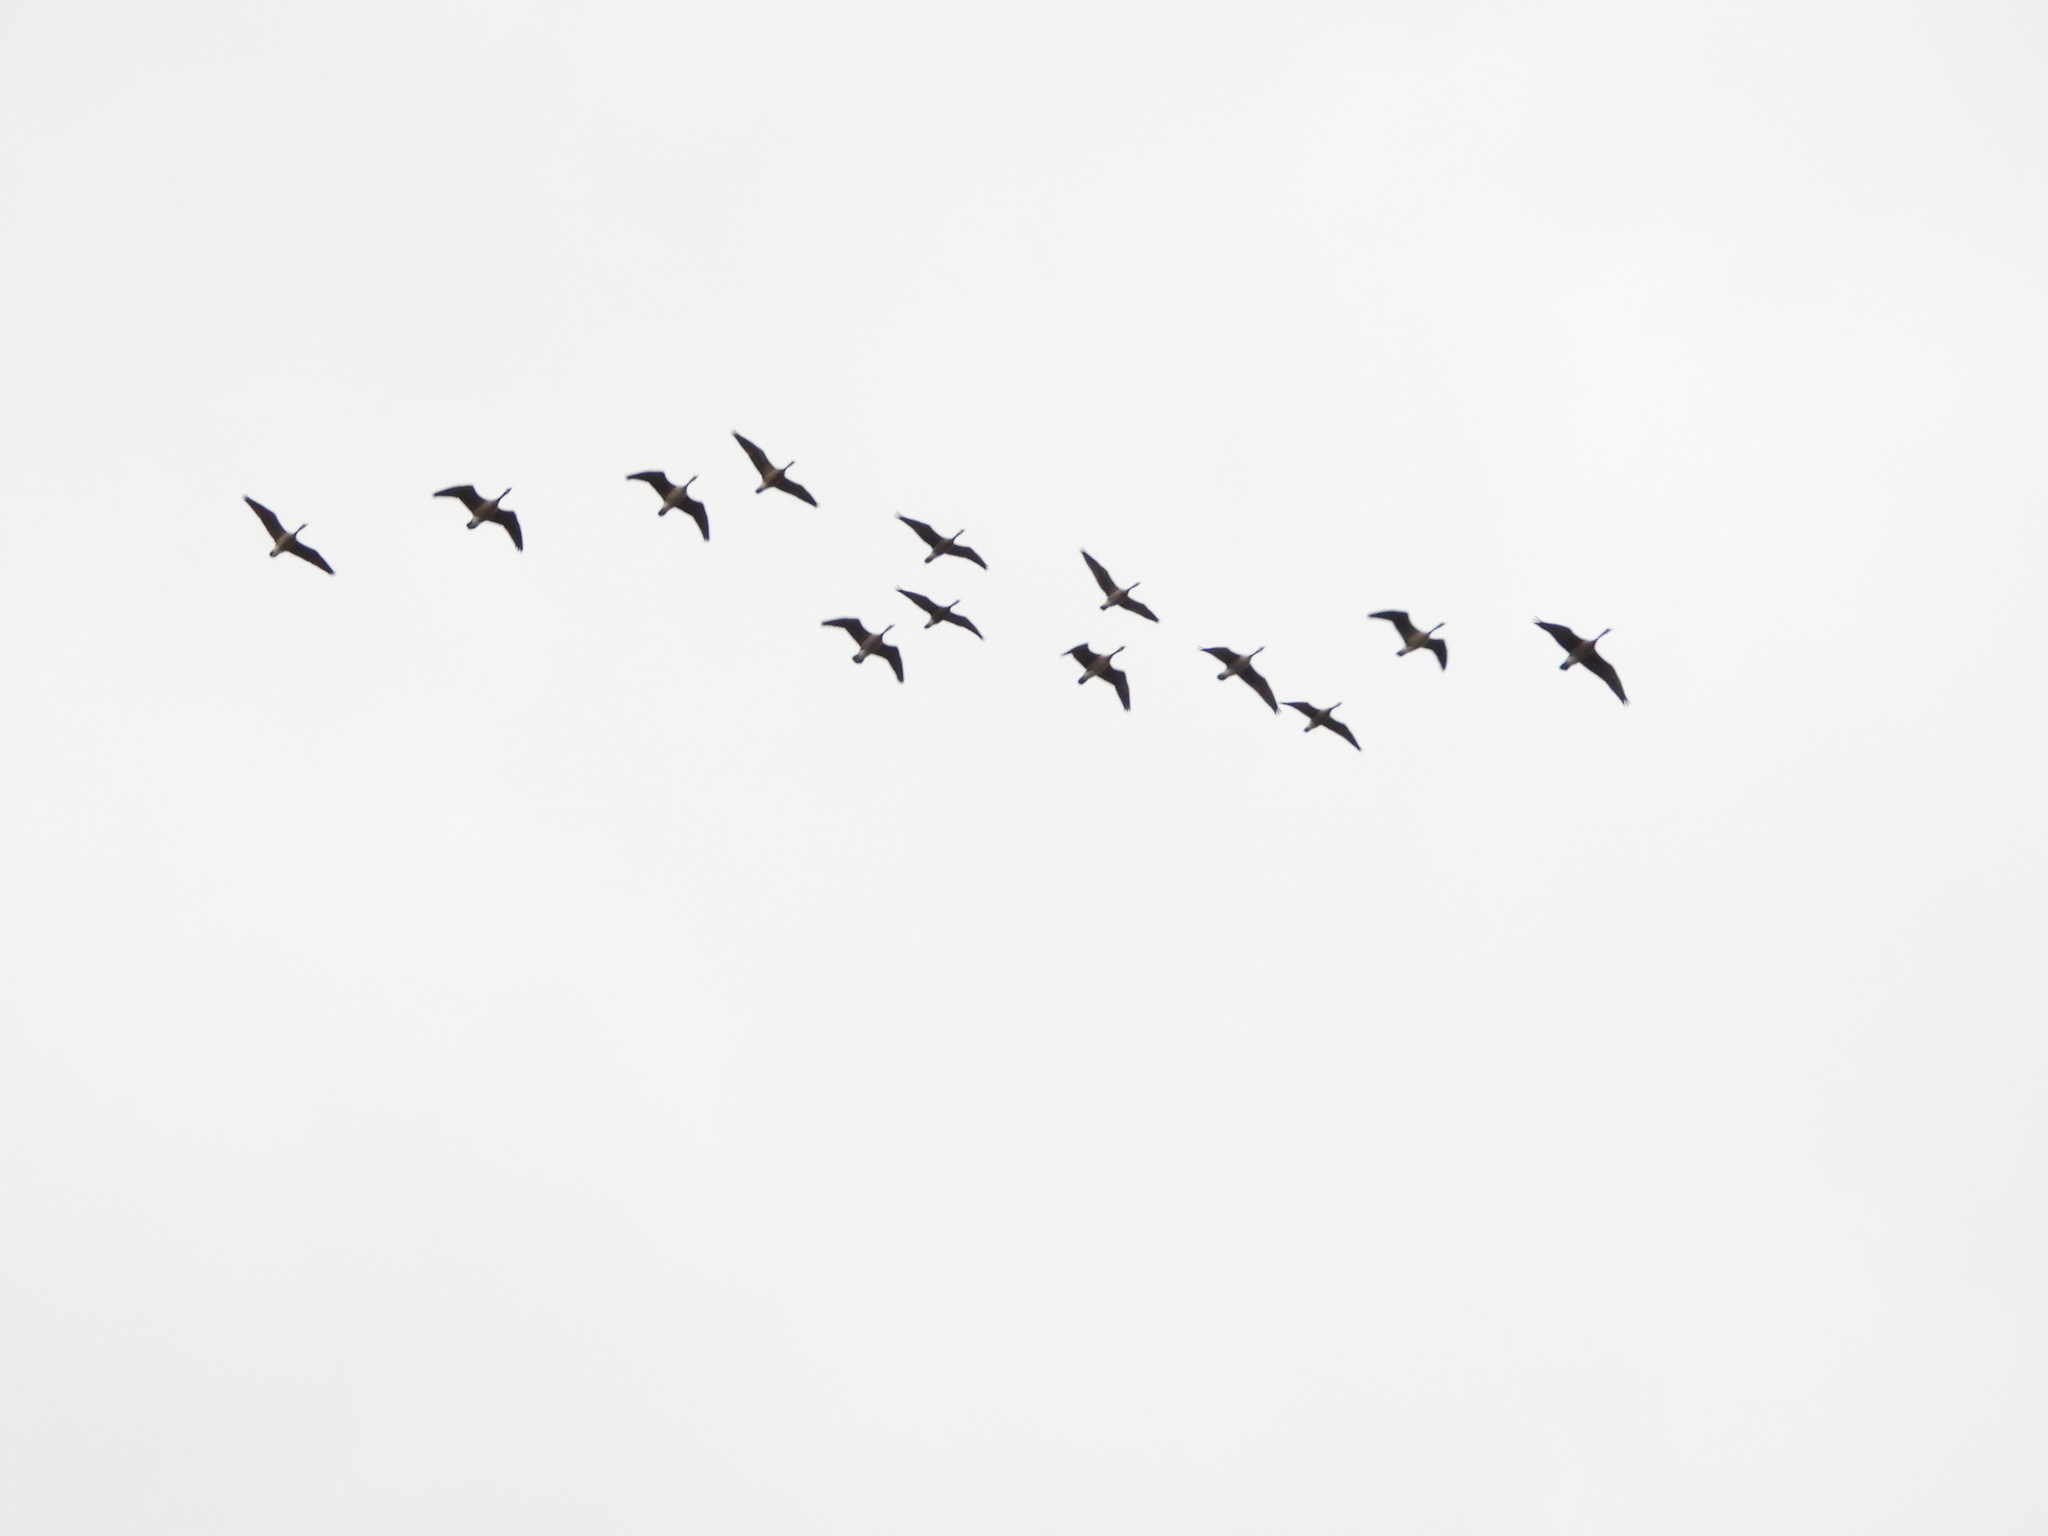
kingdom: Animalia
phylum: Chordata
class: Aves
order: Anseriformes
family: Anatidae
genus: Branta
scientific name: Branta canadensis
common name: Canada goose
